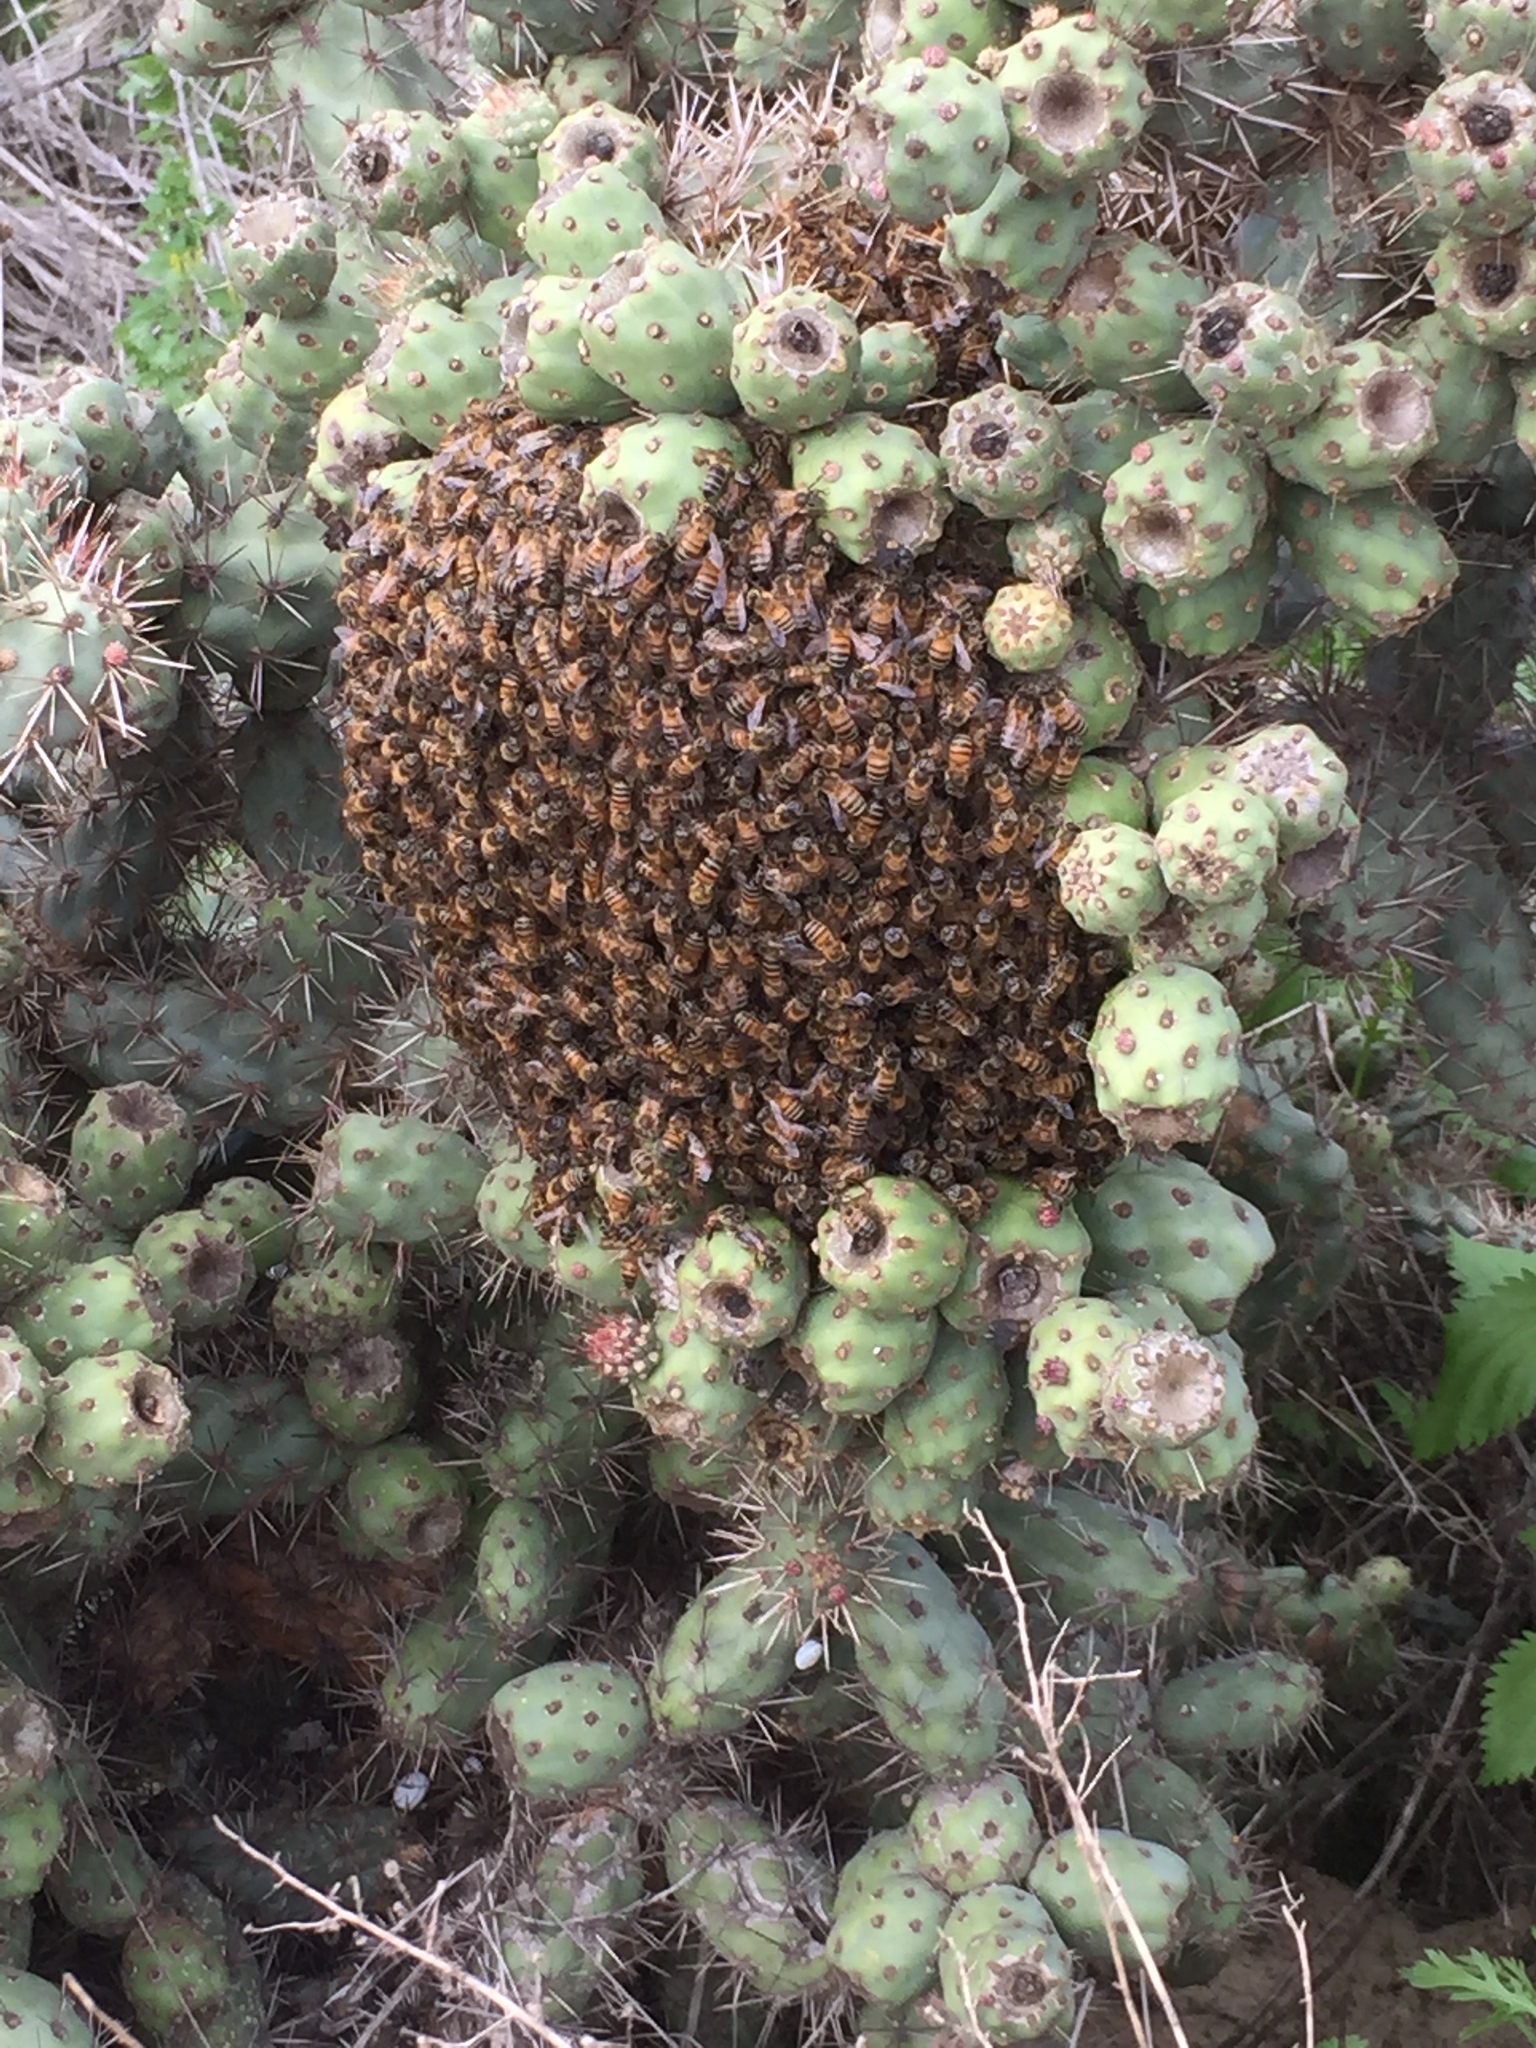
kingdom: Animalia
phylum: Arthropoda
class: Insecta
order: Hymenoptera
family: Apidae
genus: Apis
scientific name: Apis mellifera
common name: Honey bee
